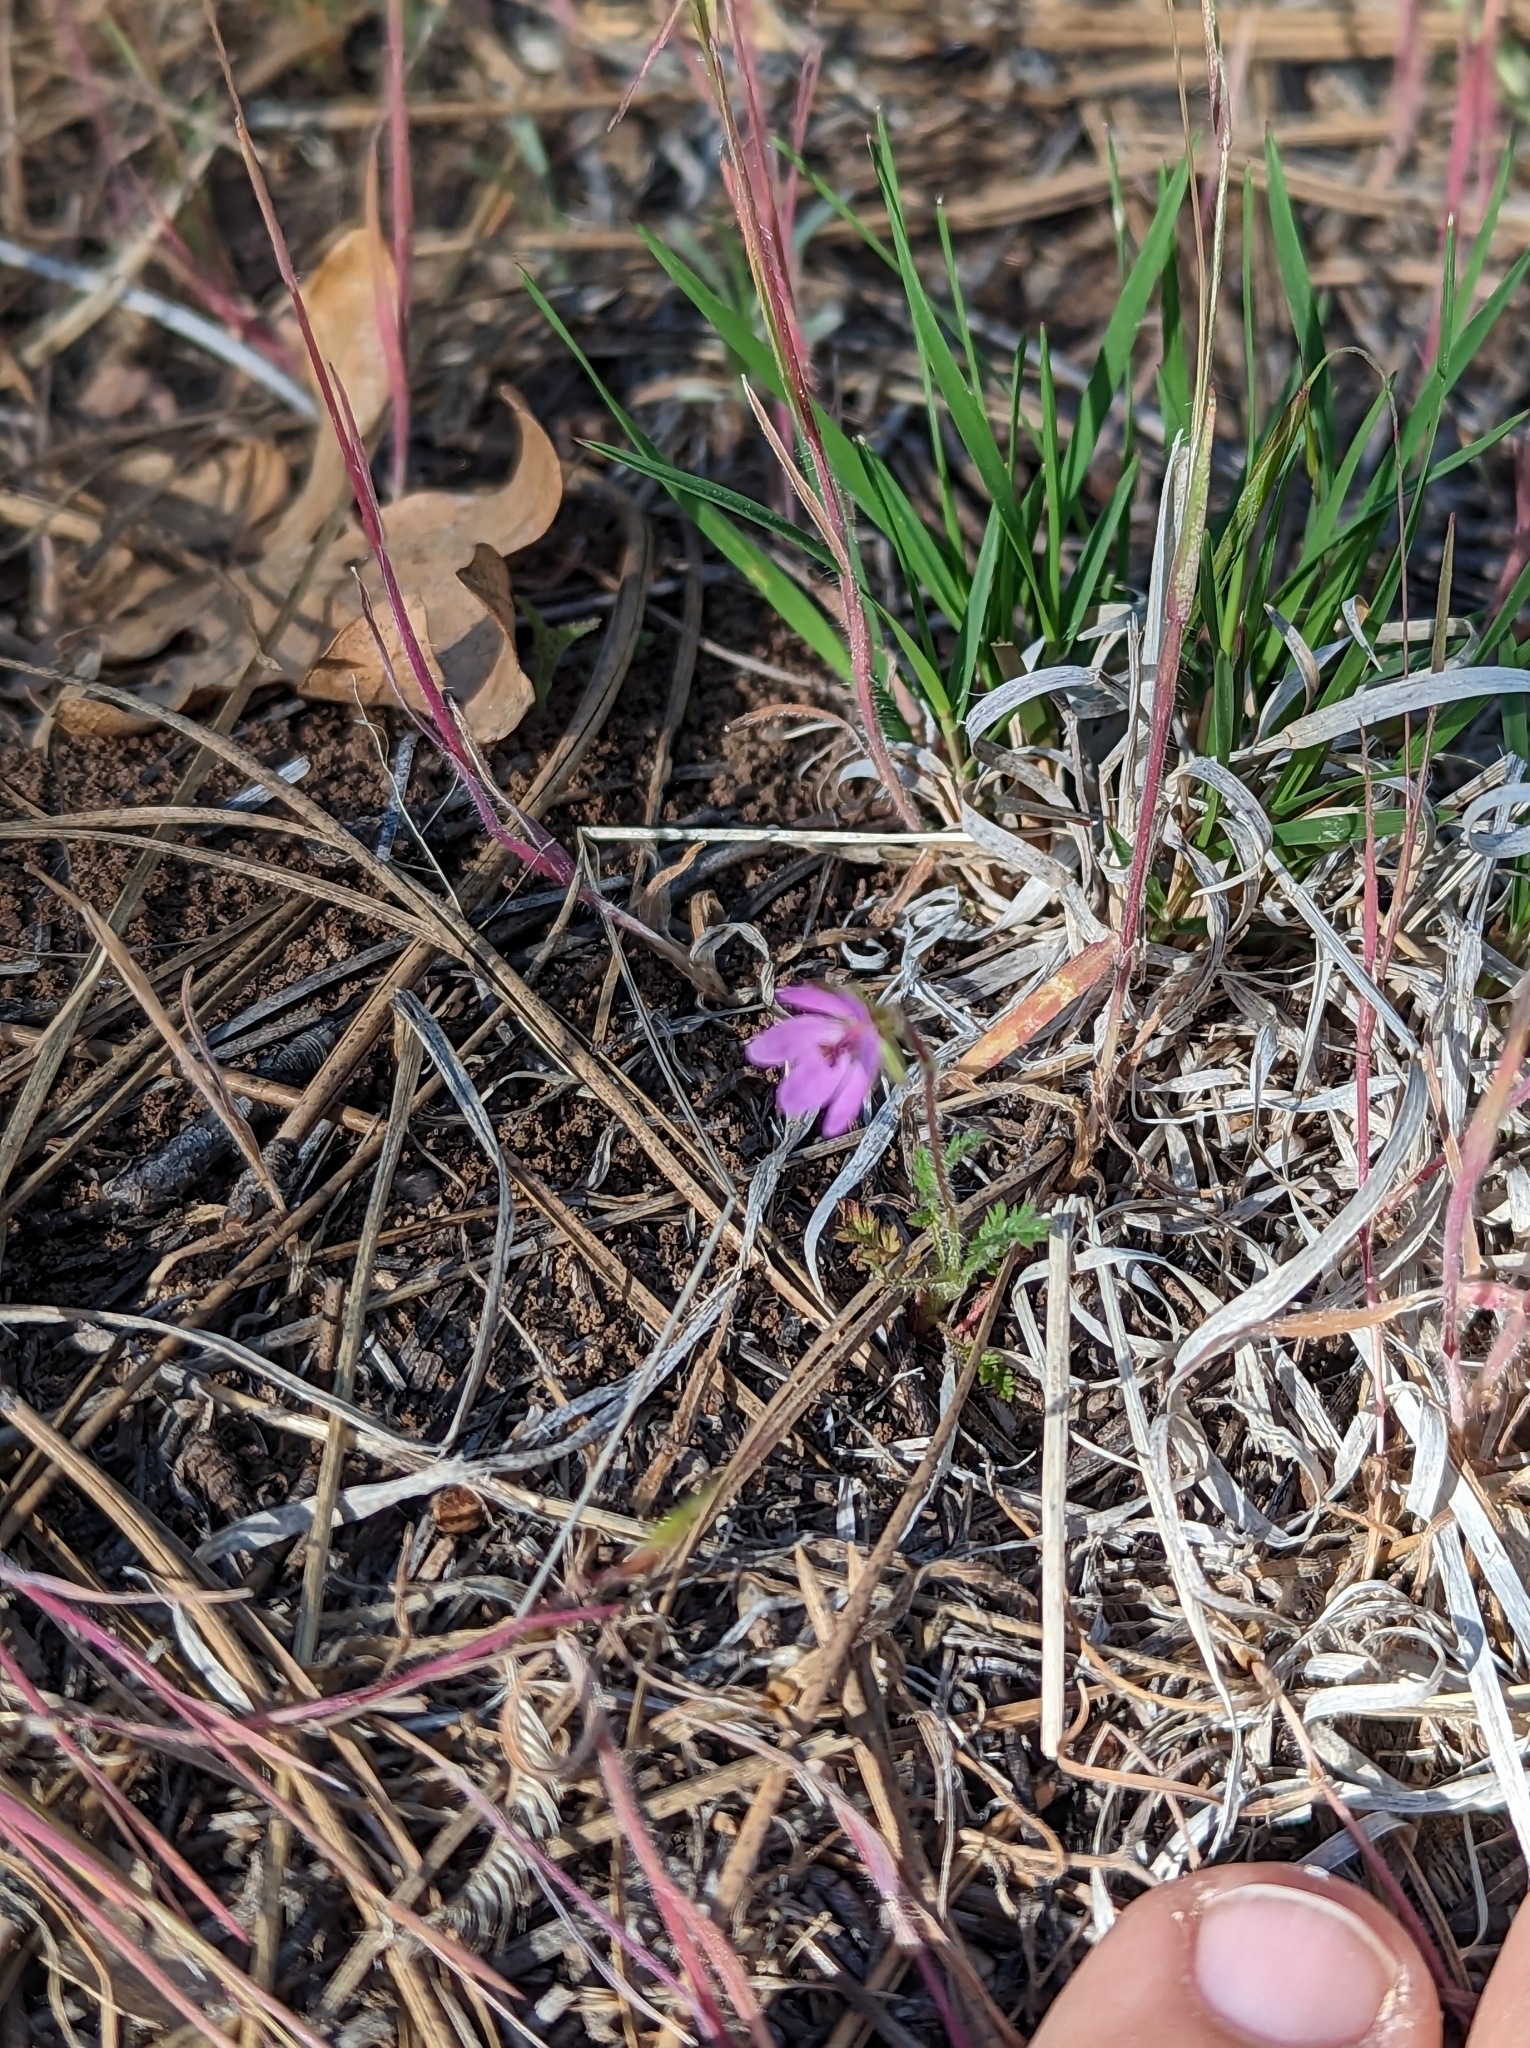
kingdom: Plantae
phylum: Tracheophyta
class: Magnoliopsida
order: Geraniales
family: Geraniaceae
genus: Erodium
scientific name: Erodium cicutarium
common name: Common stork's-bill
